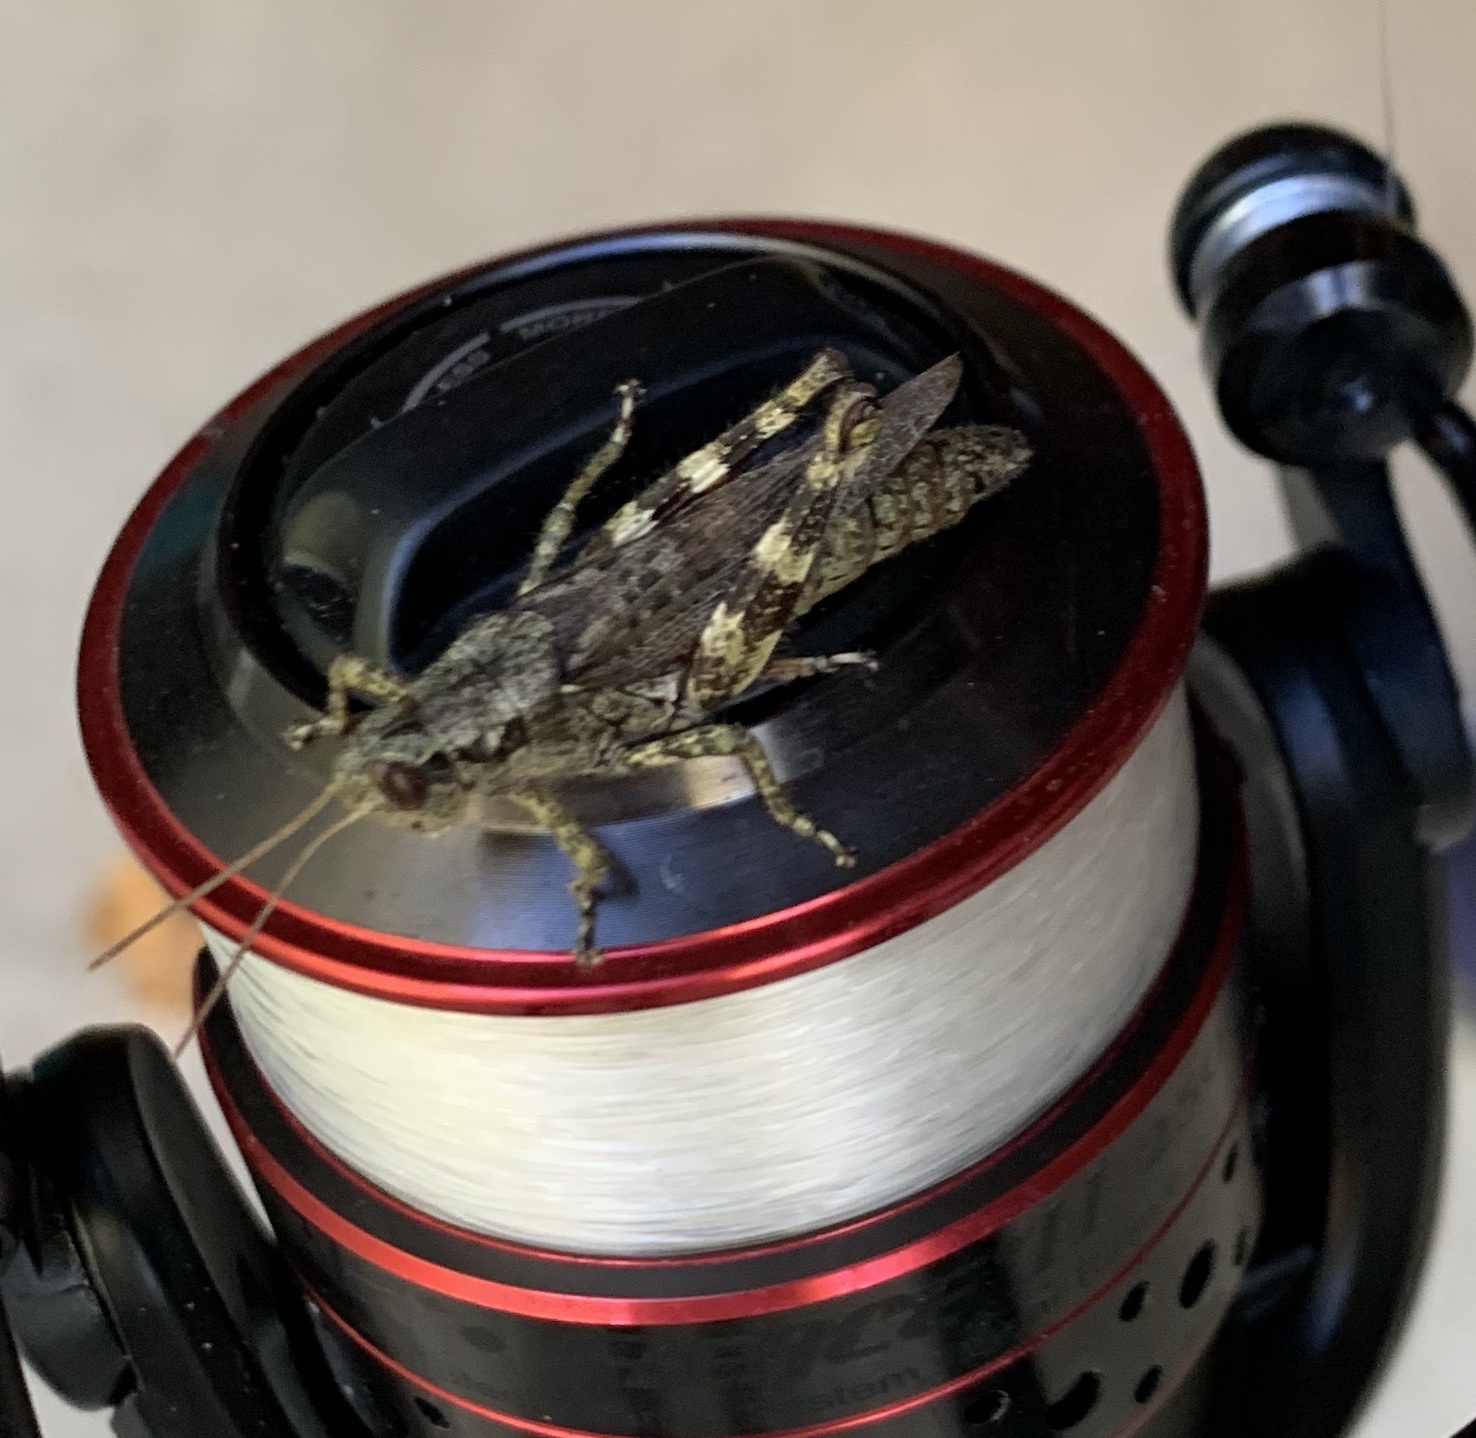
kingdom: Animalia
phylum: Arthropoda
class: Insecta
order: Orthoptera
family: Acrididae
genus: Melanoplus
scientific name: Melanoplus punctulatus
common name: Pine-tree spur-throat grasshopper
